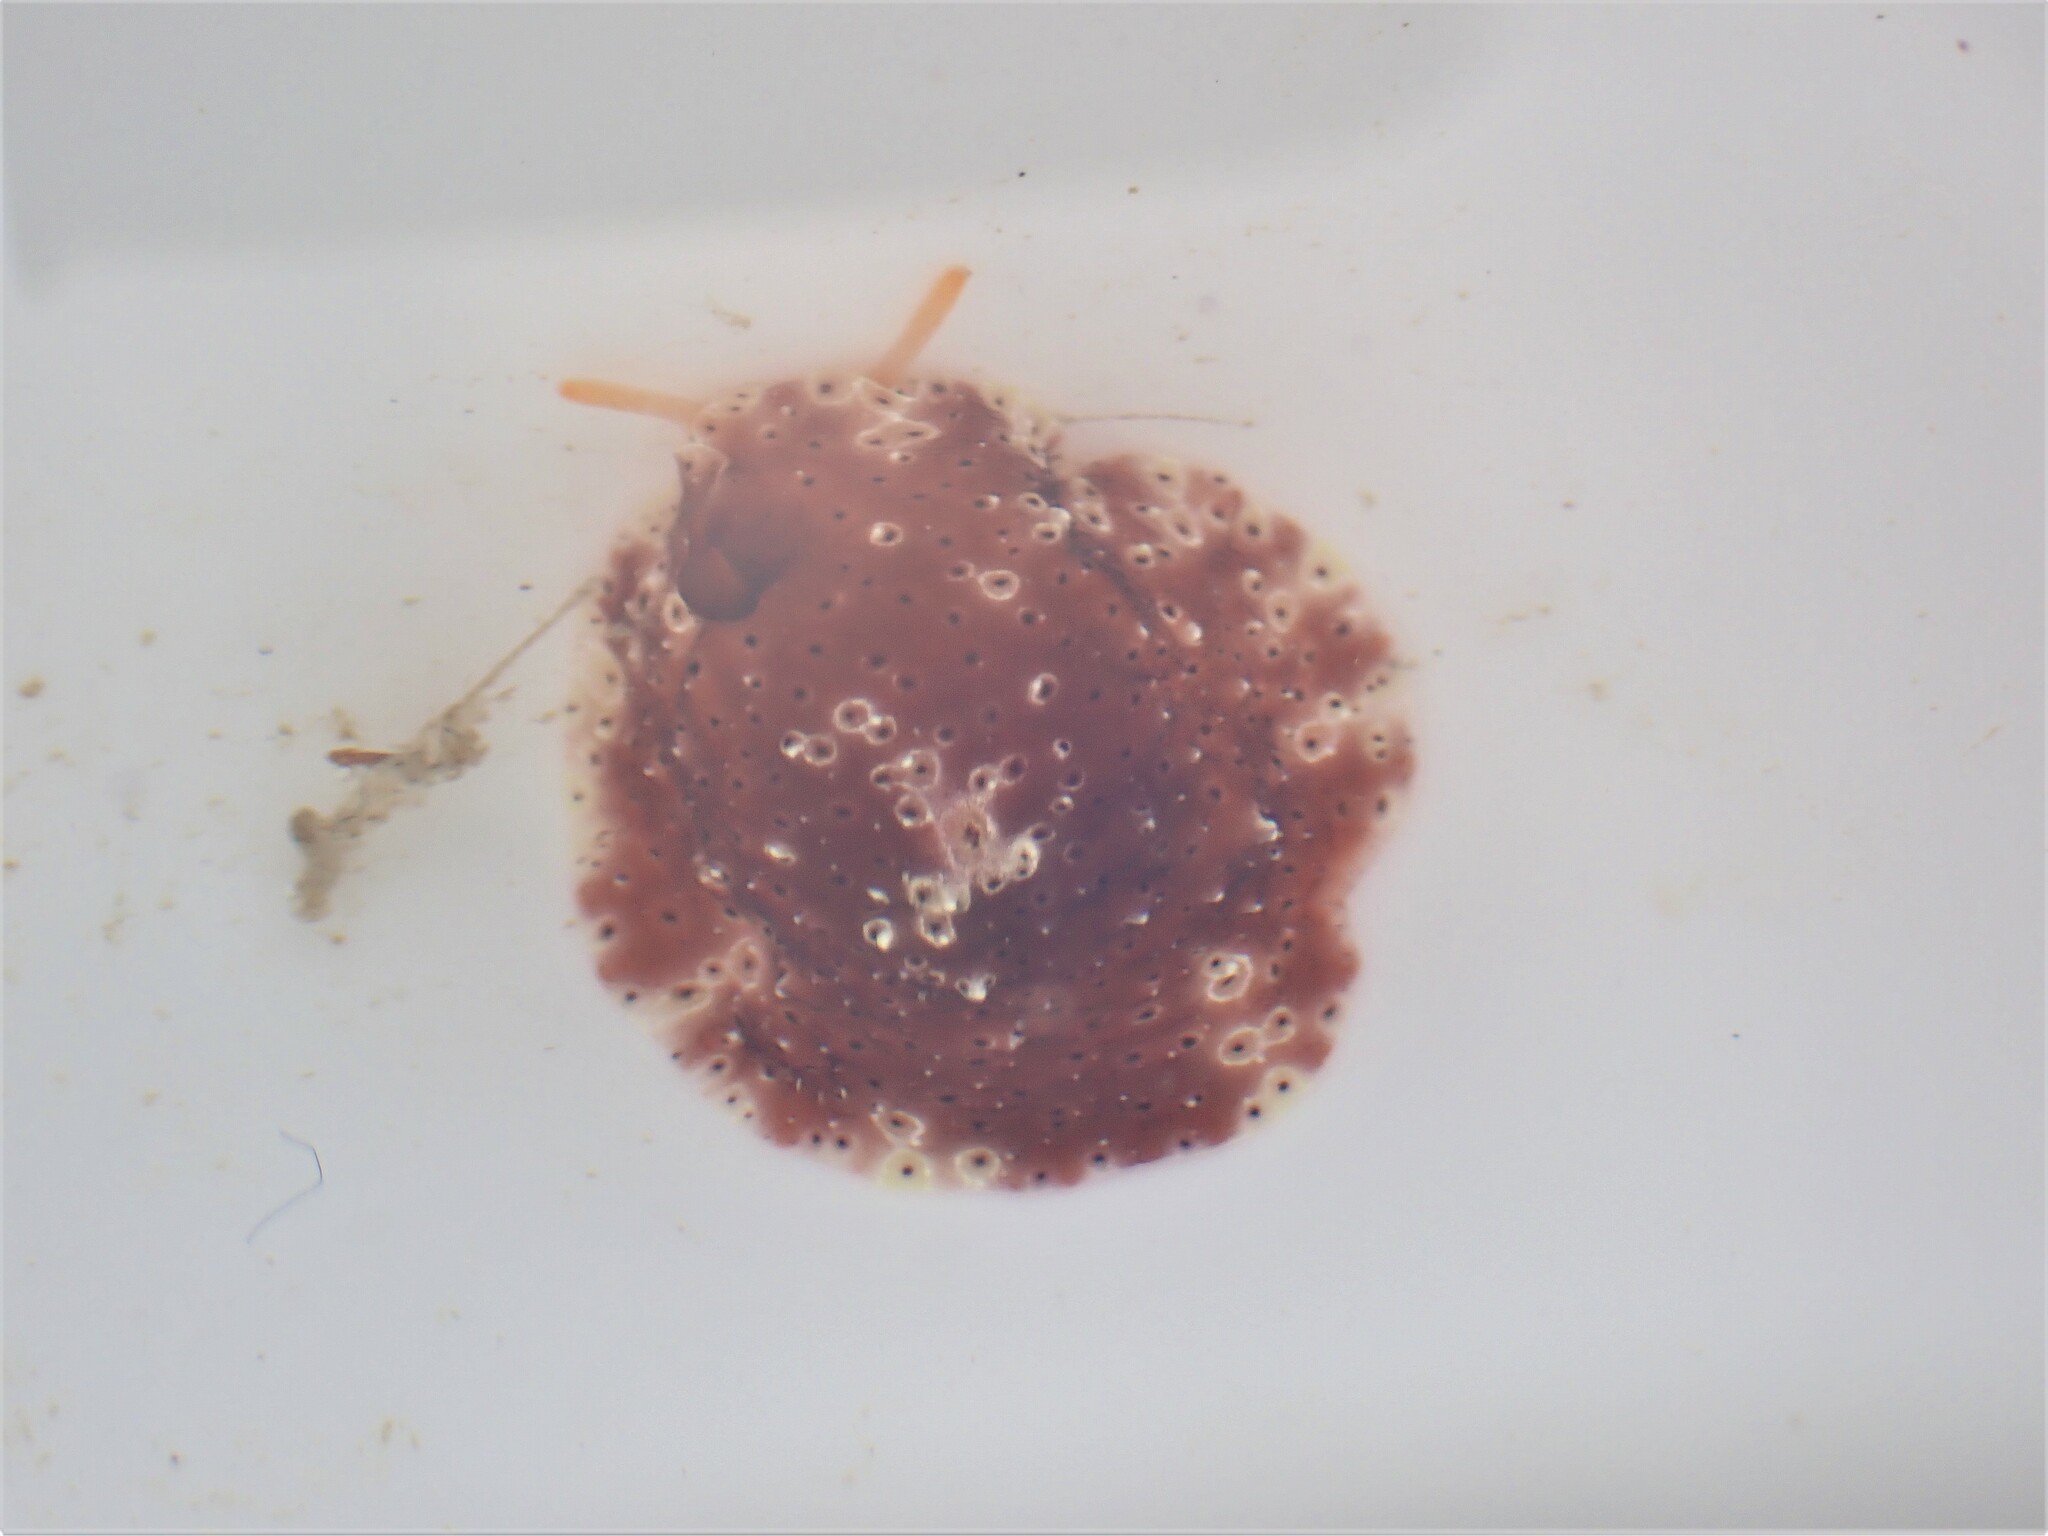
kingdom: Animalia
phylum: Mollusca
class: Gastropoda
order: Littorinimorpha
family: Velutinidae
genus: Djiboutia
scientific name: Djiboutia australis
